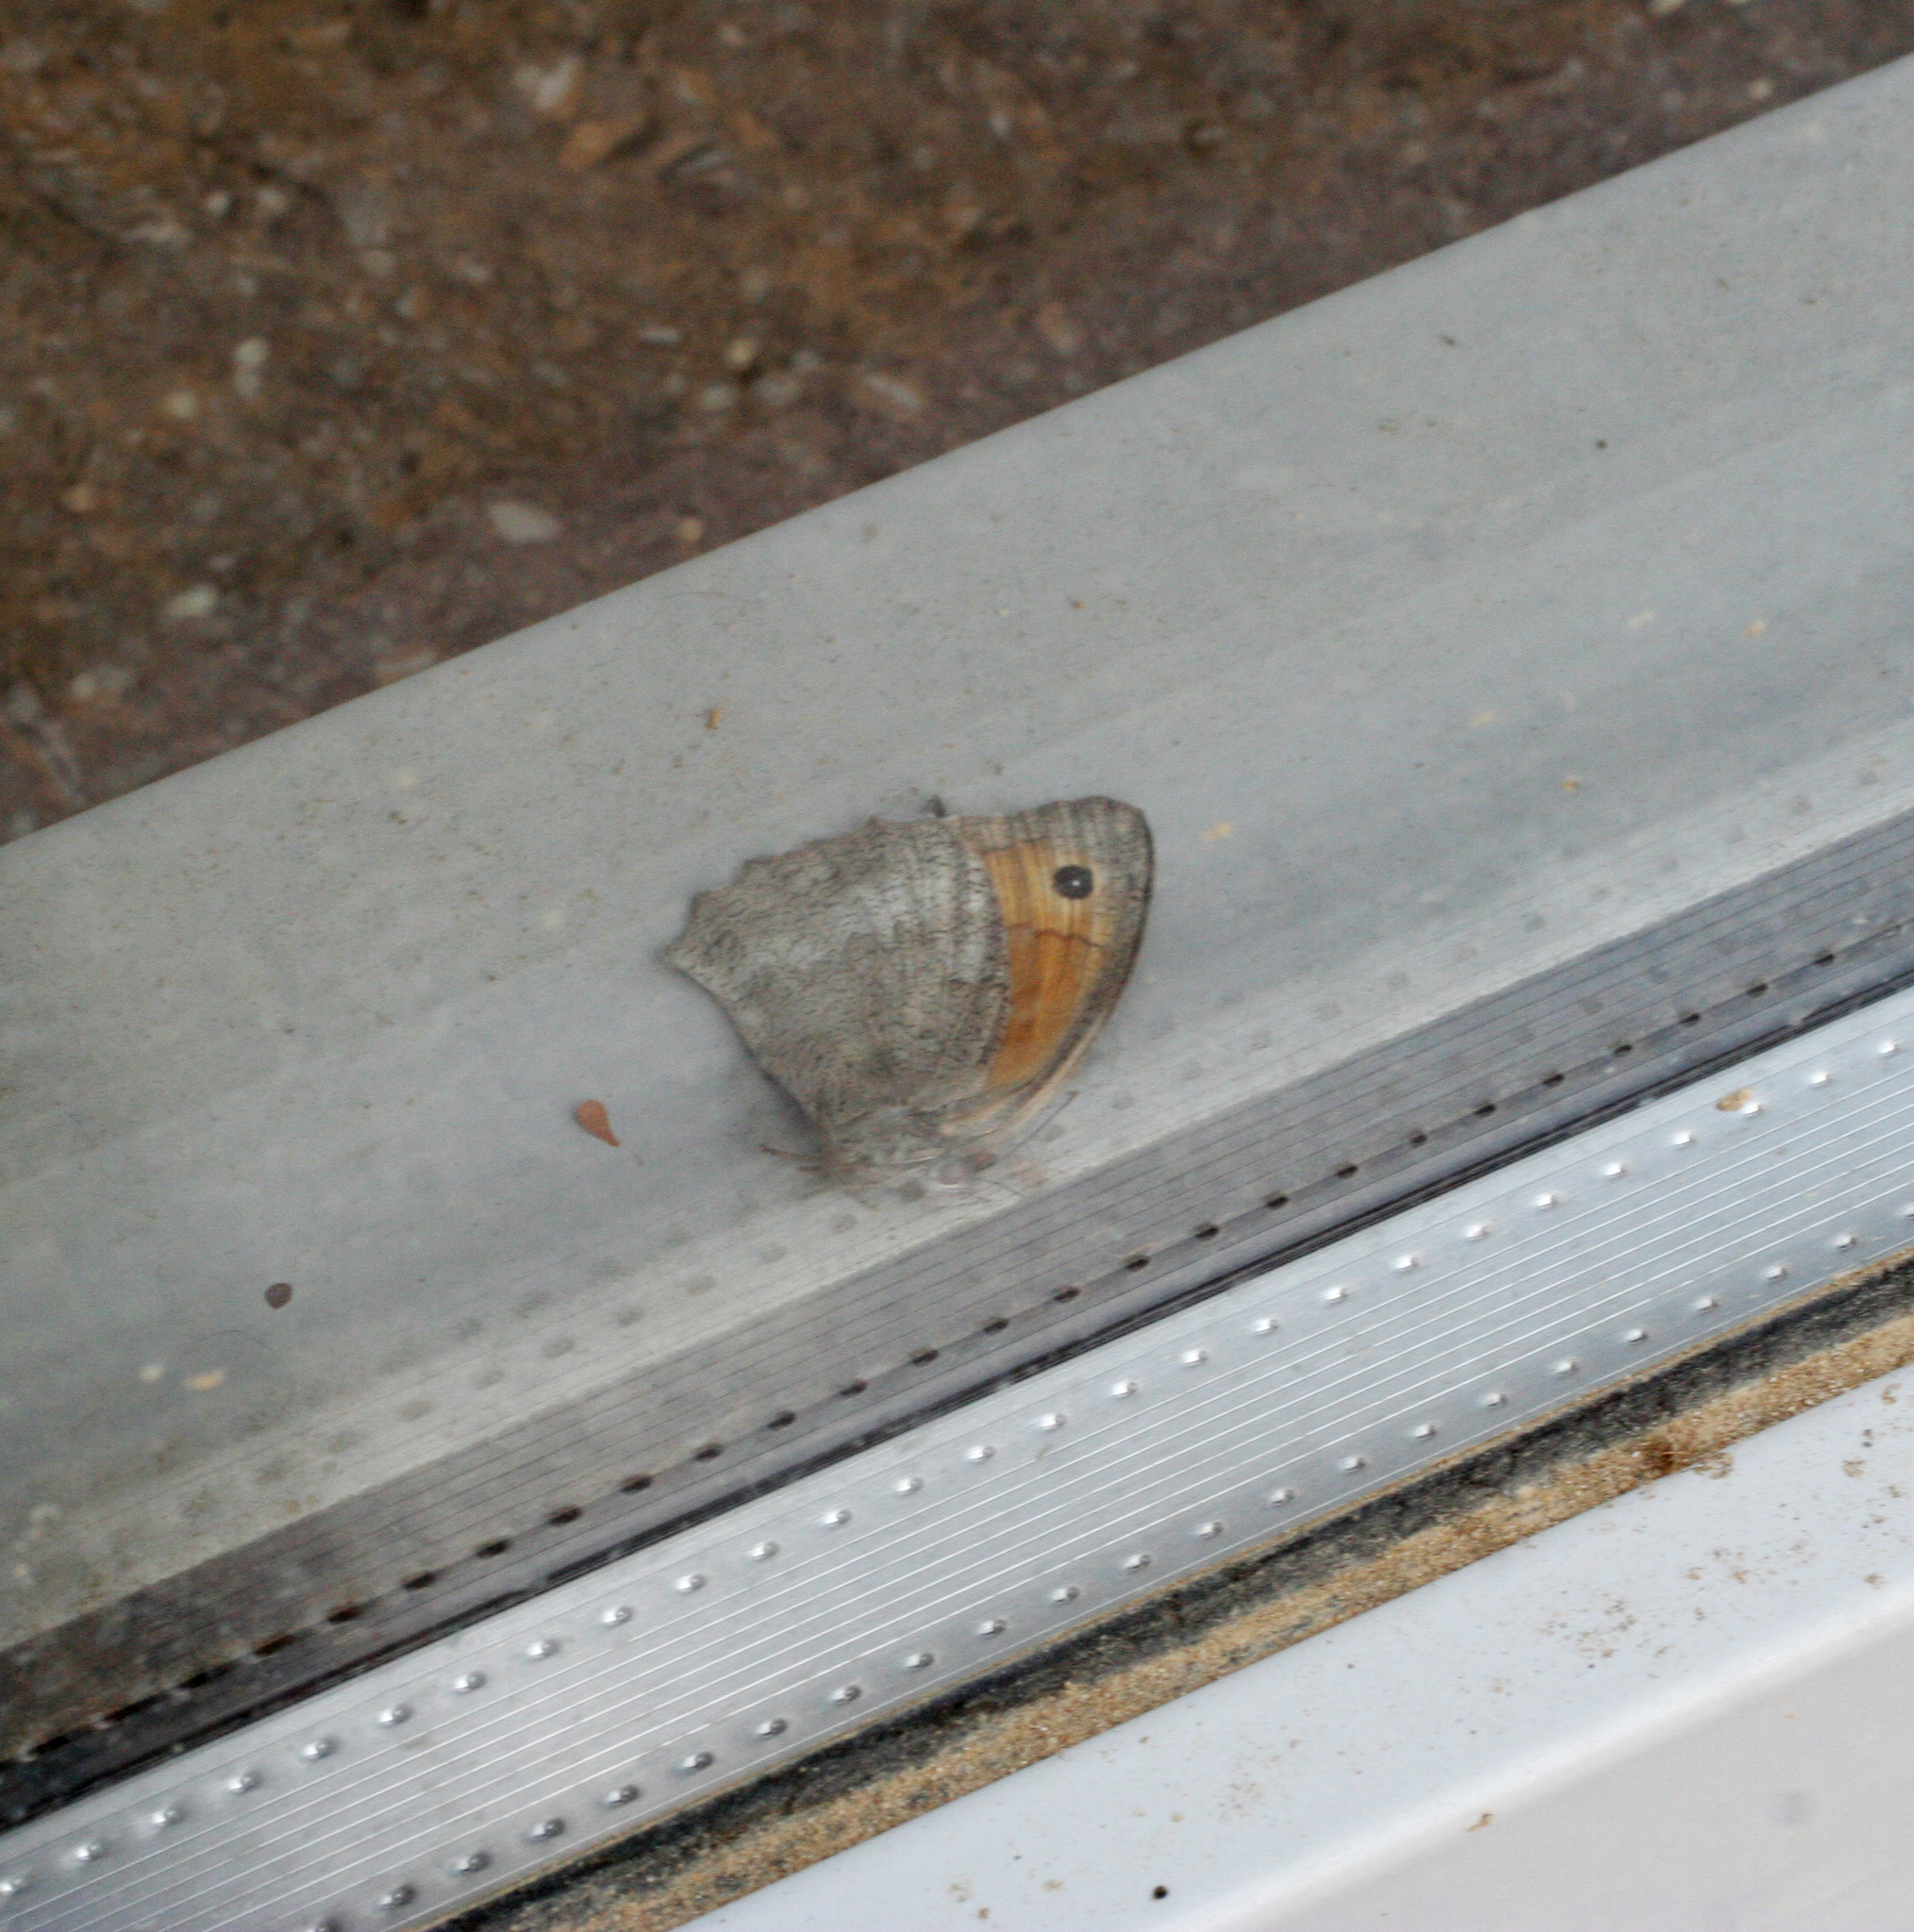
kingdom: Animalia
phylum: Arthropoda
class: Insecta
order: Lepidoptera
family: Nymphalidae
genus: Hyponephele
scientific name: Hyponephele lupinus
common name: Oriental meadow brown
